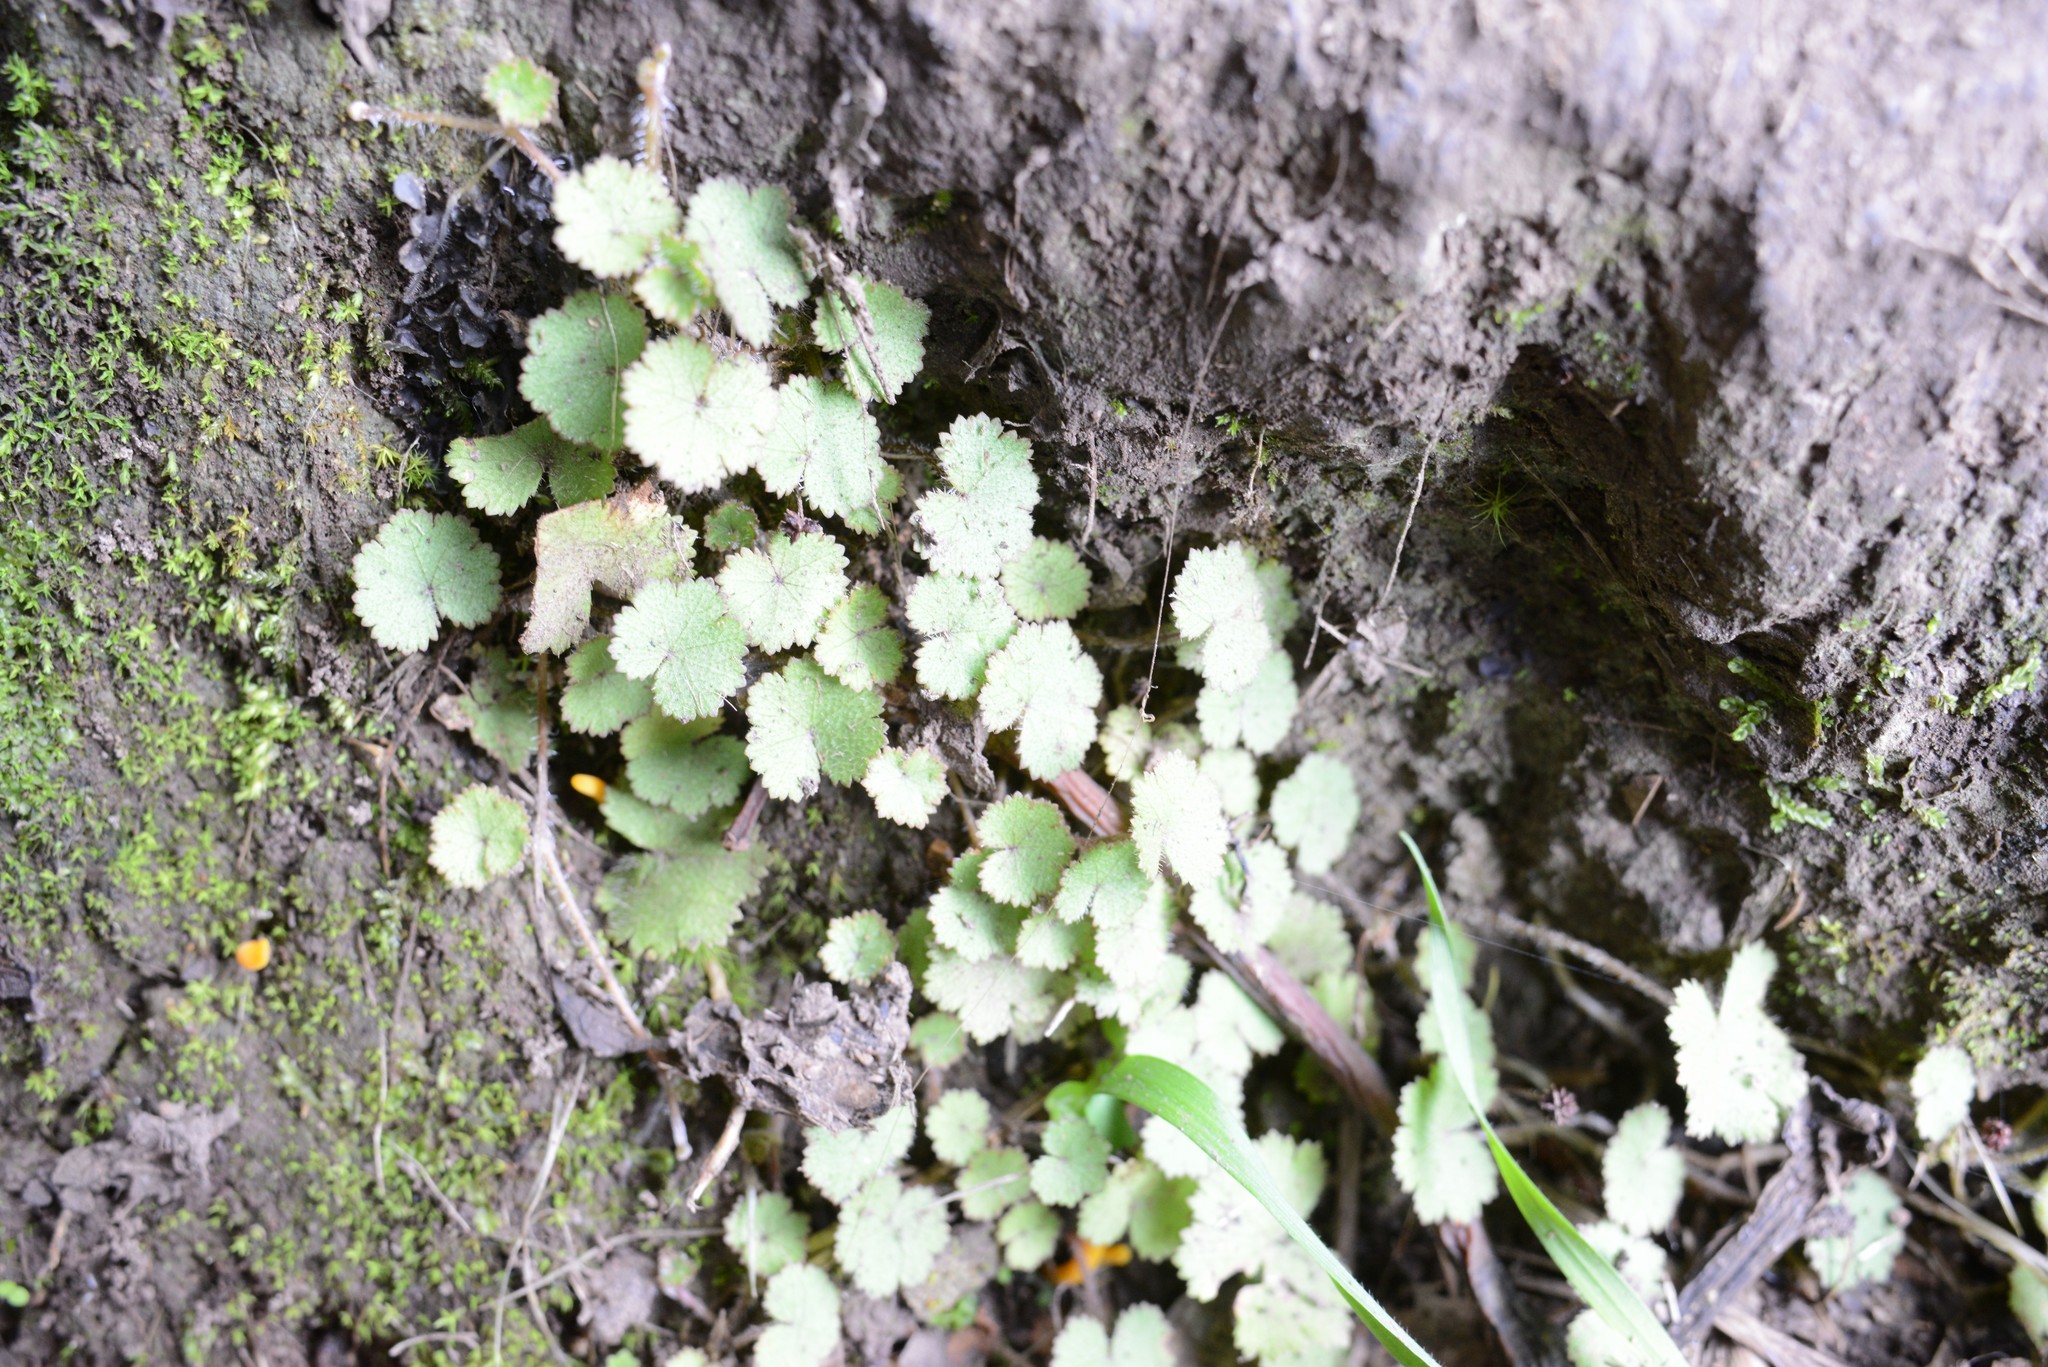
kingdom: Plantae
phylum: Tracheophyta
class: Magnoliopsida
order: Apiales
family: Araliaceae
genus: Hydrocotyle
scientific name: Hydrocotyle moschata
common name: Hairy pennywort
